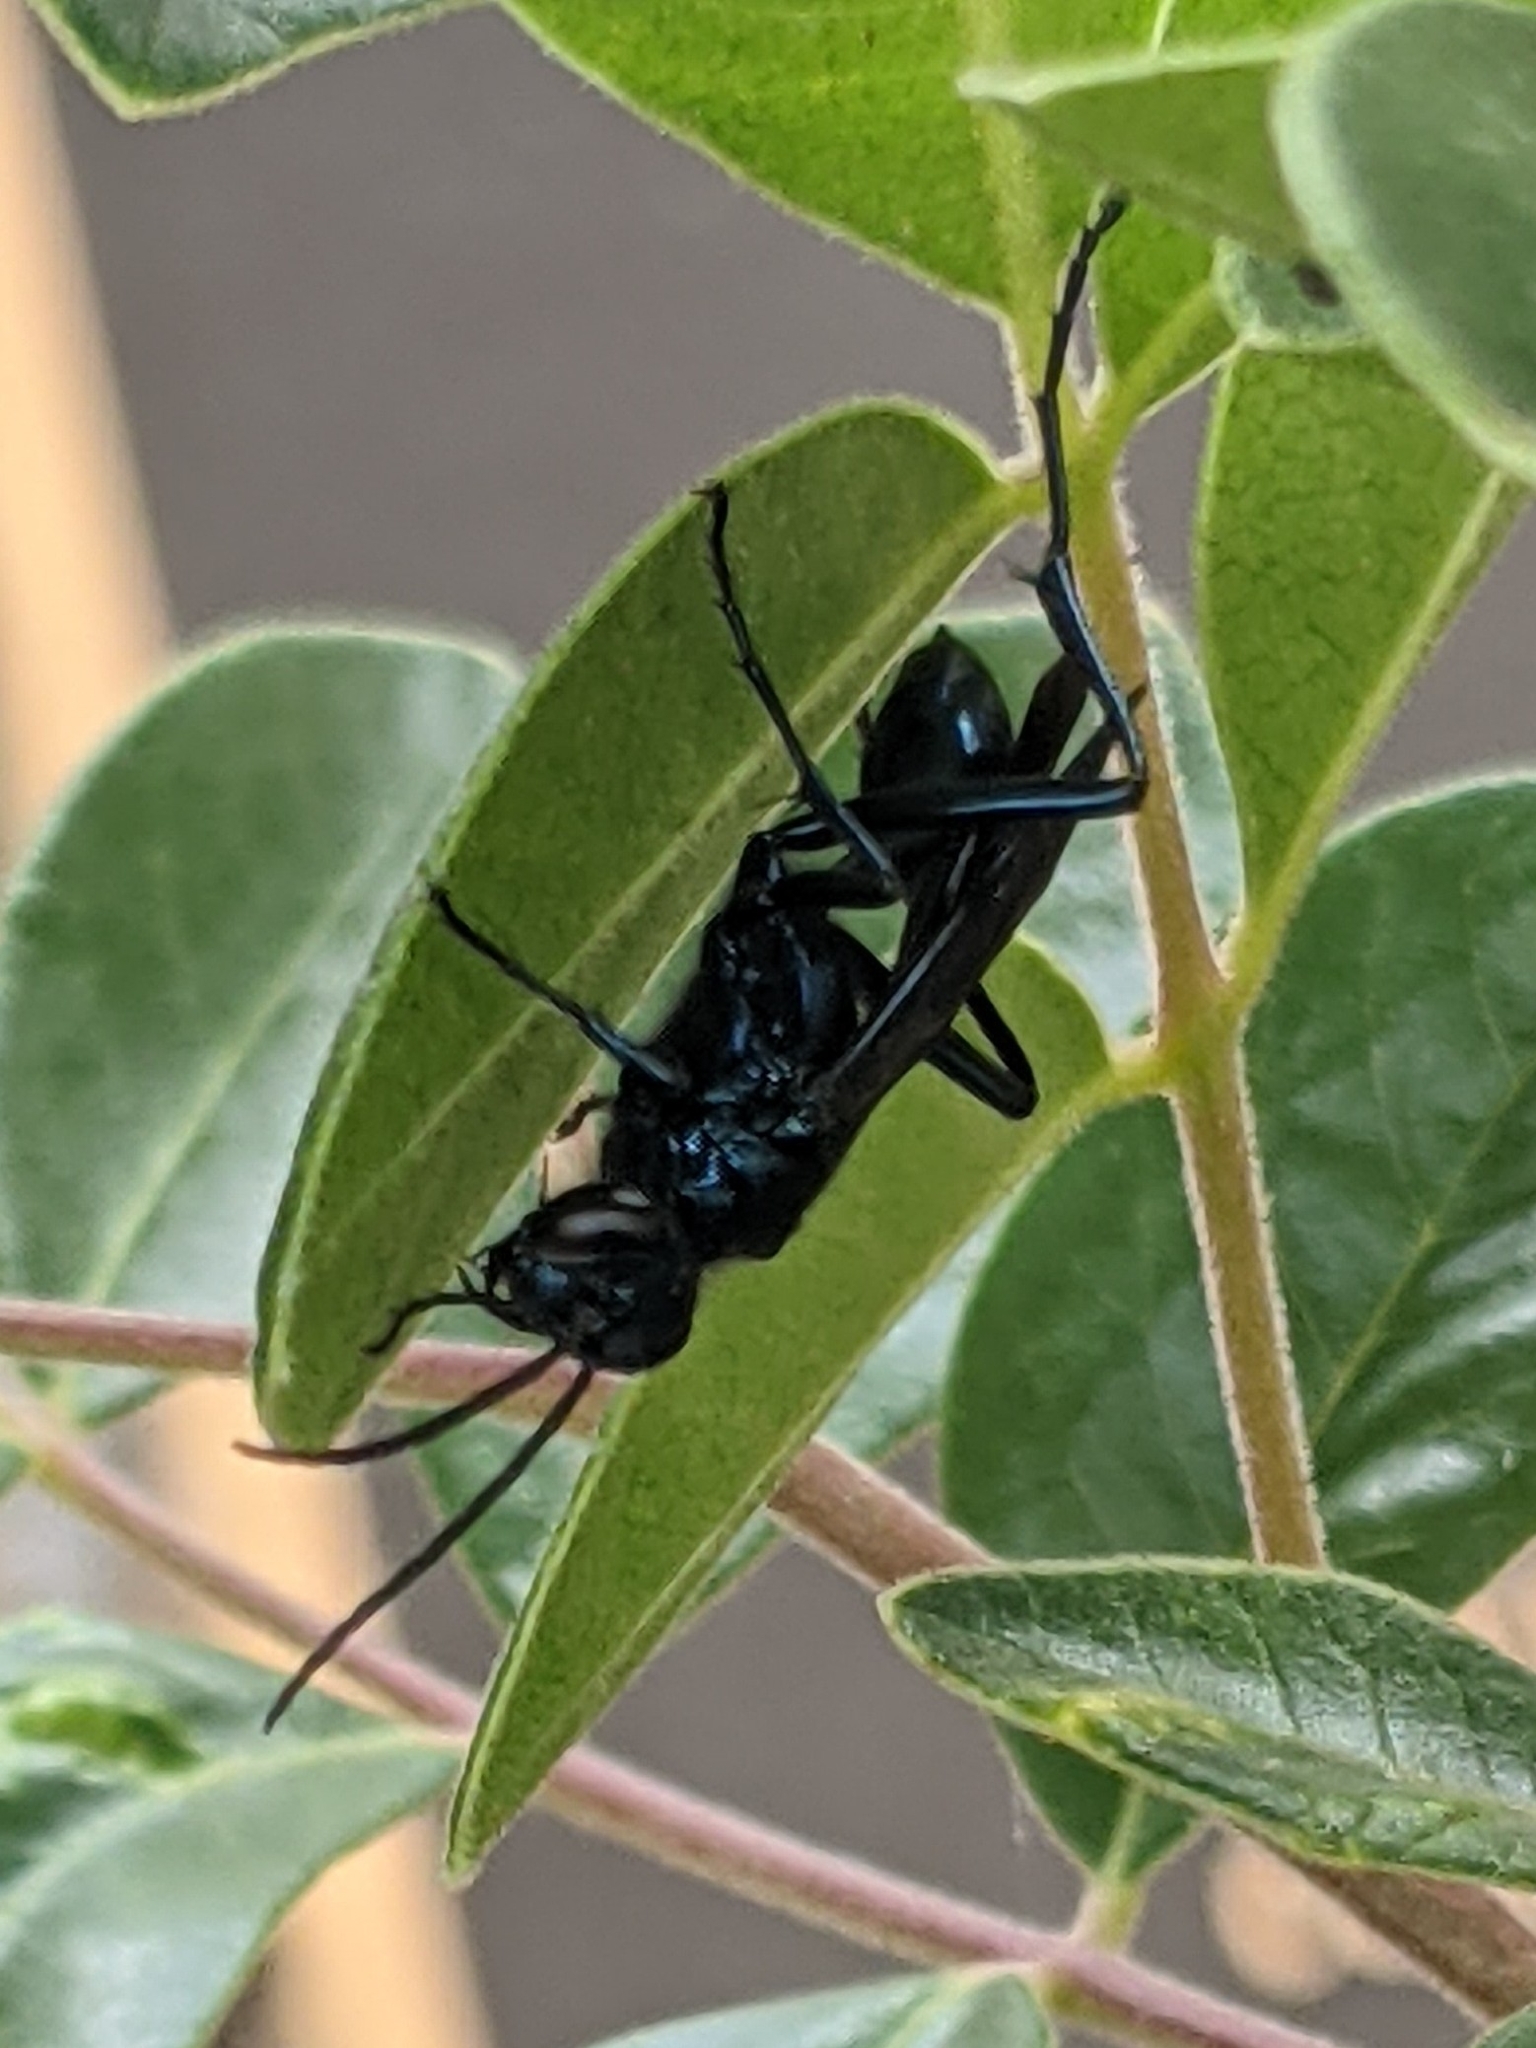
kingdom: Animalia
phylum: Arthropoda
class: Insecta
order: Hymenoptera
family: Sphecidae
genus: Chalybion
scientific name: Chalybion californicum
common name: Mud dauber
